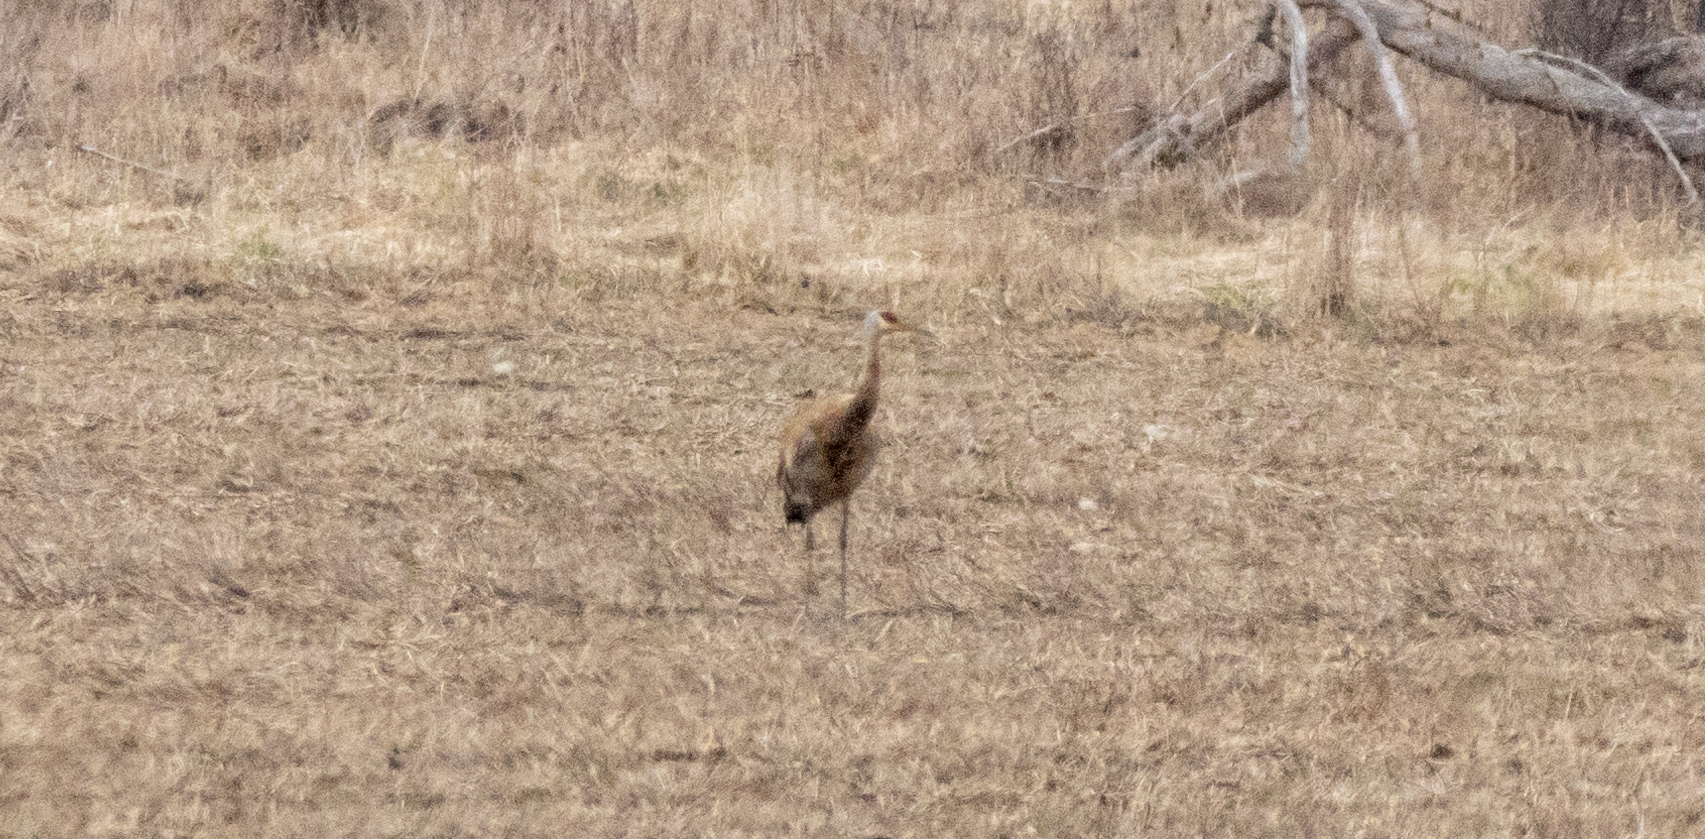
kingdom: Animalia
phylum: Chordata
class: Aves
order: Gruiformes
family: Gruidae
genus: Grus
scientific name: Grus canadensis
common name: Sandhill crane
